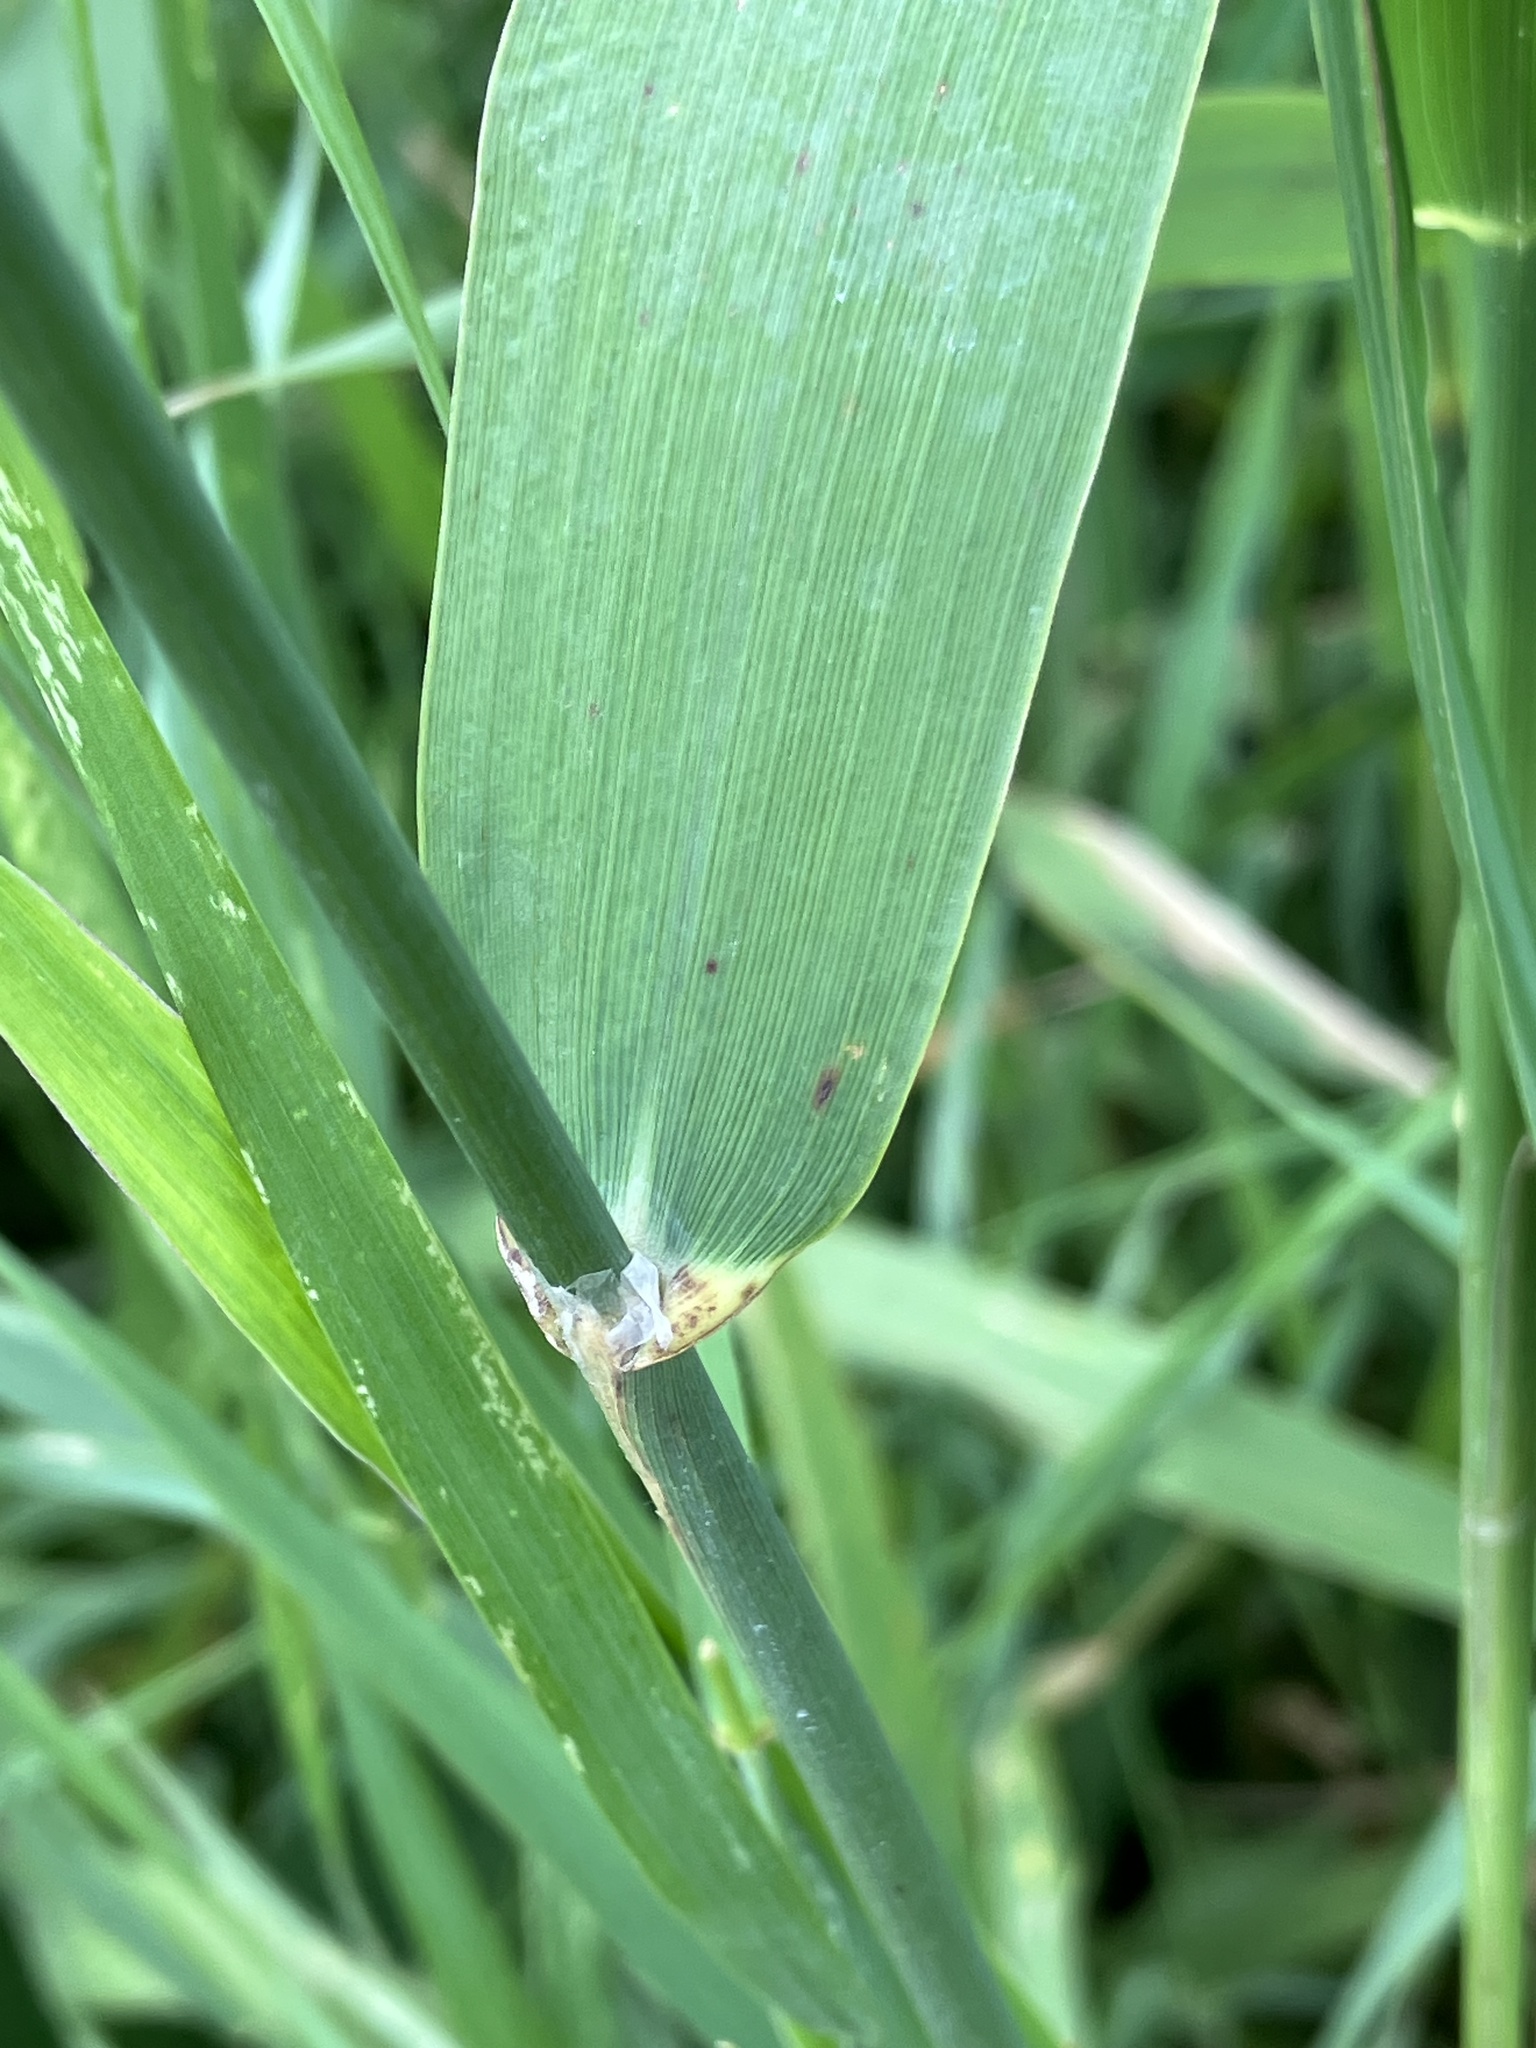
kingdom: Plantae
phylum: Tracheophyta
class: Liliopsida
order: Poales
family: Poaceae
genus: Phalaris
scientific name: Phalaris arundinacea
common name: Reed canary-grass
